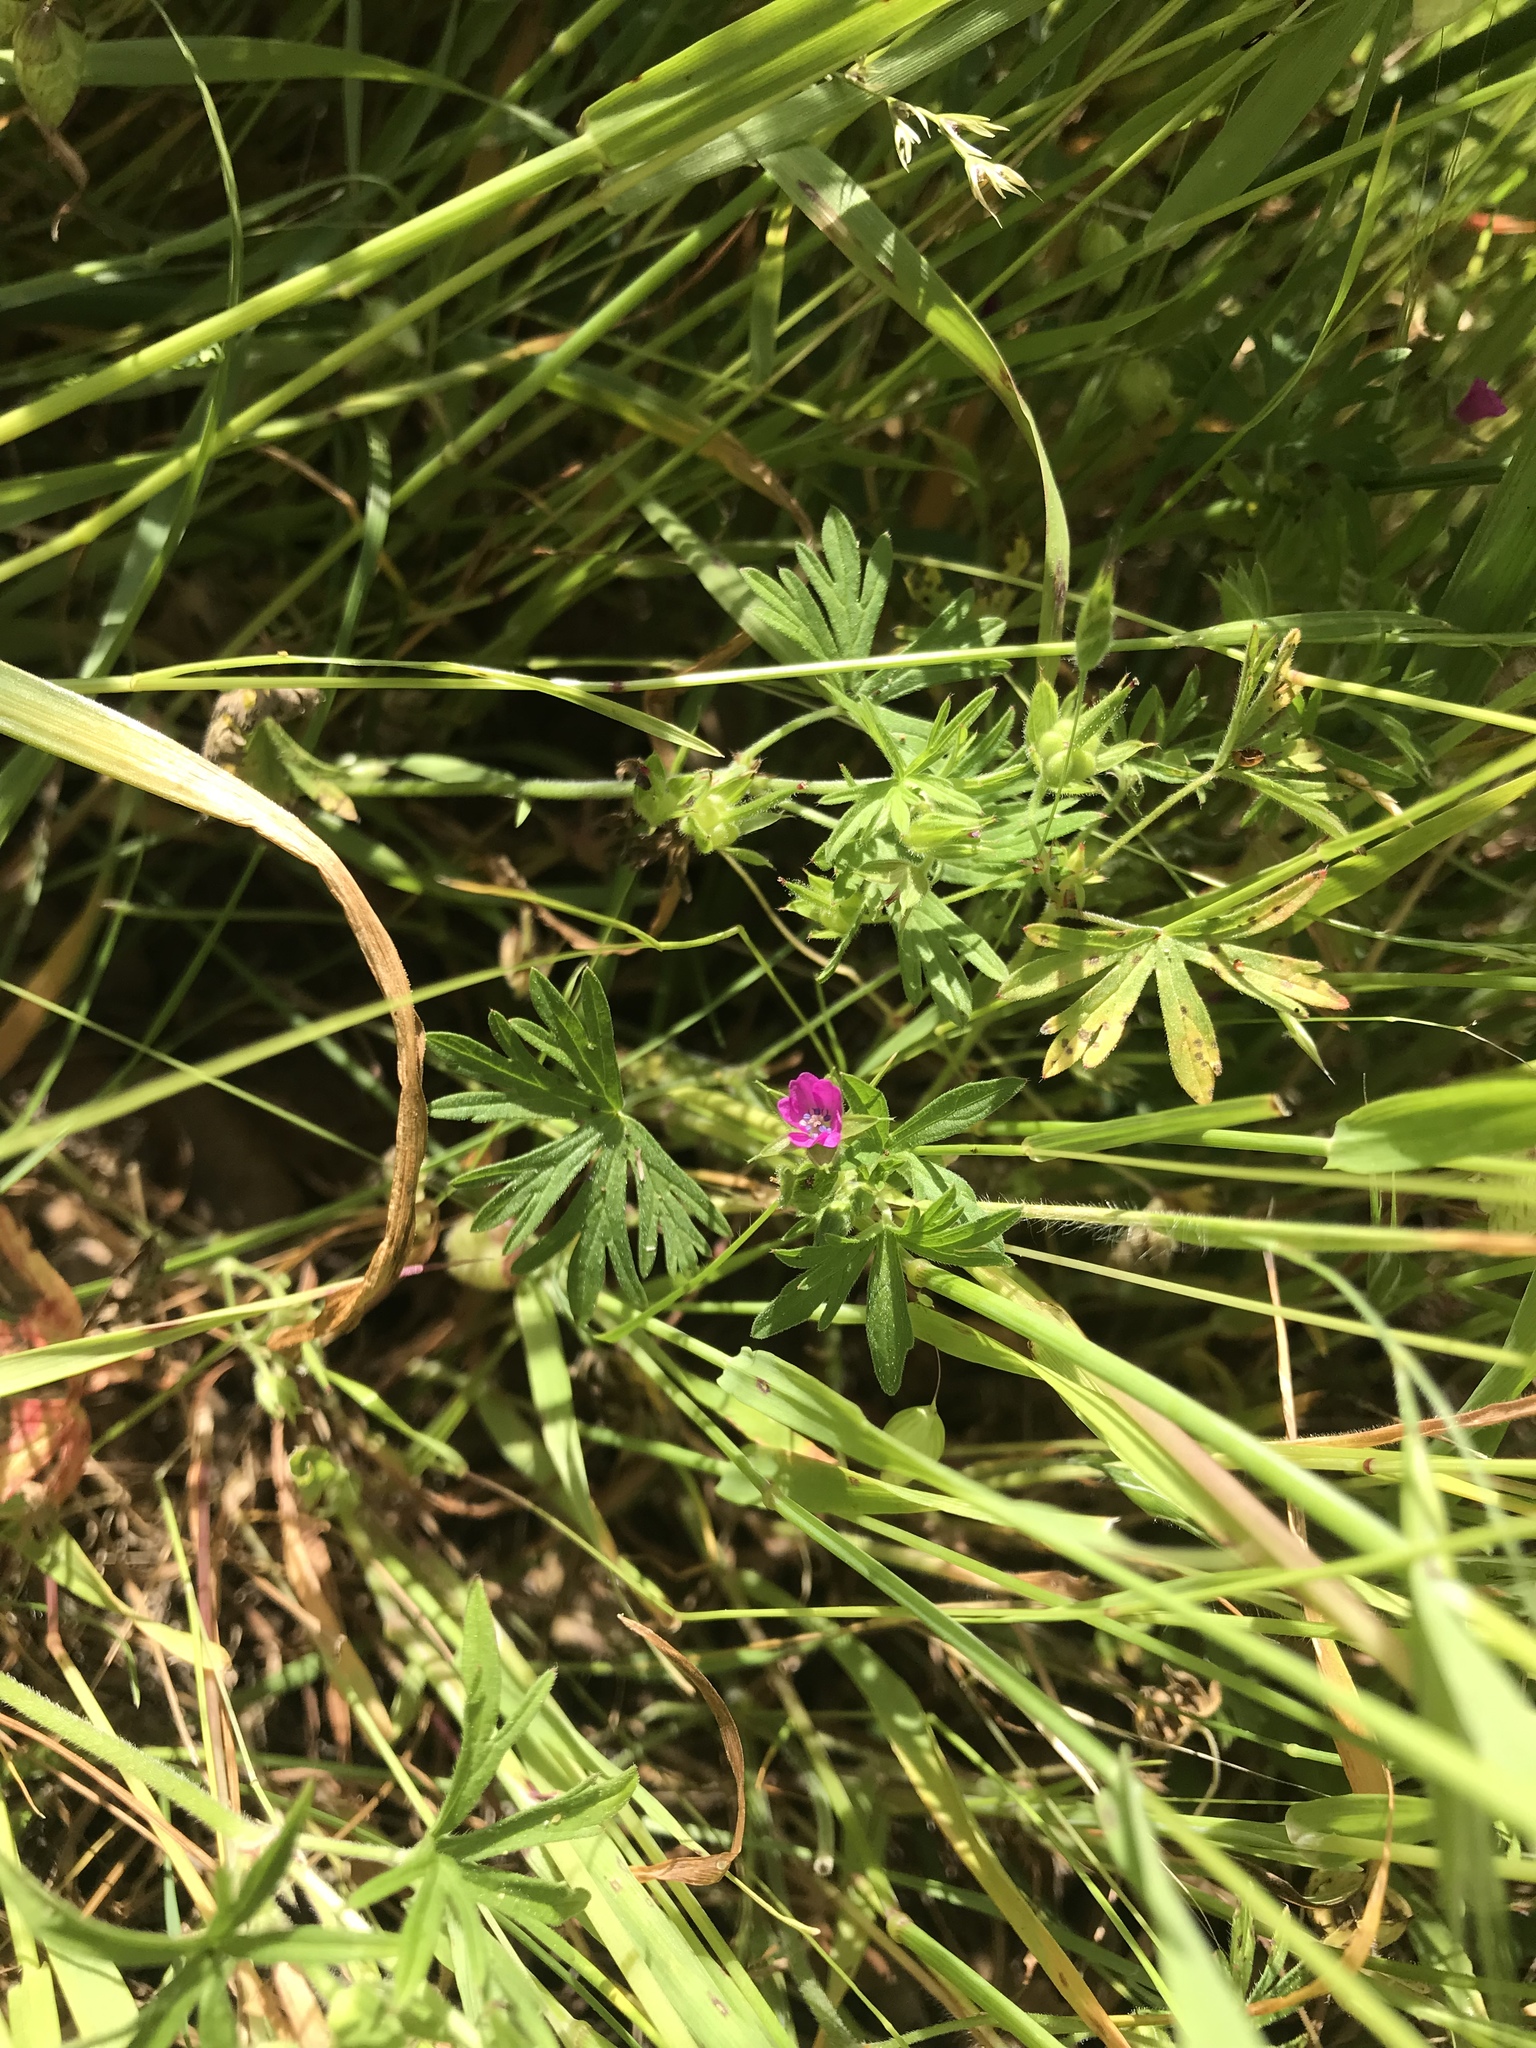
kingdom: Plantae
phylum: Tracheophyta
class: Magnoliopsida
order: Geraniales
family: Geraniaceae
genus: Geranium
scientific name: Geranium dissectum
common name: Cut-leaved crane's-bill
